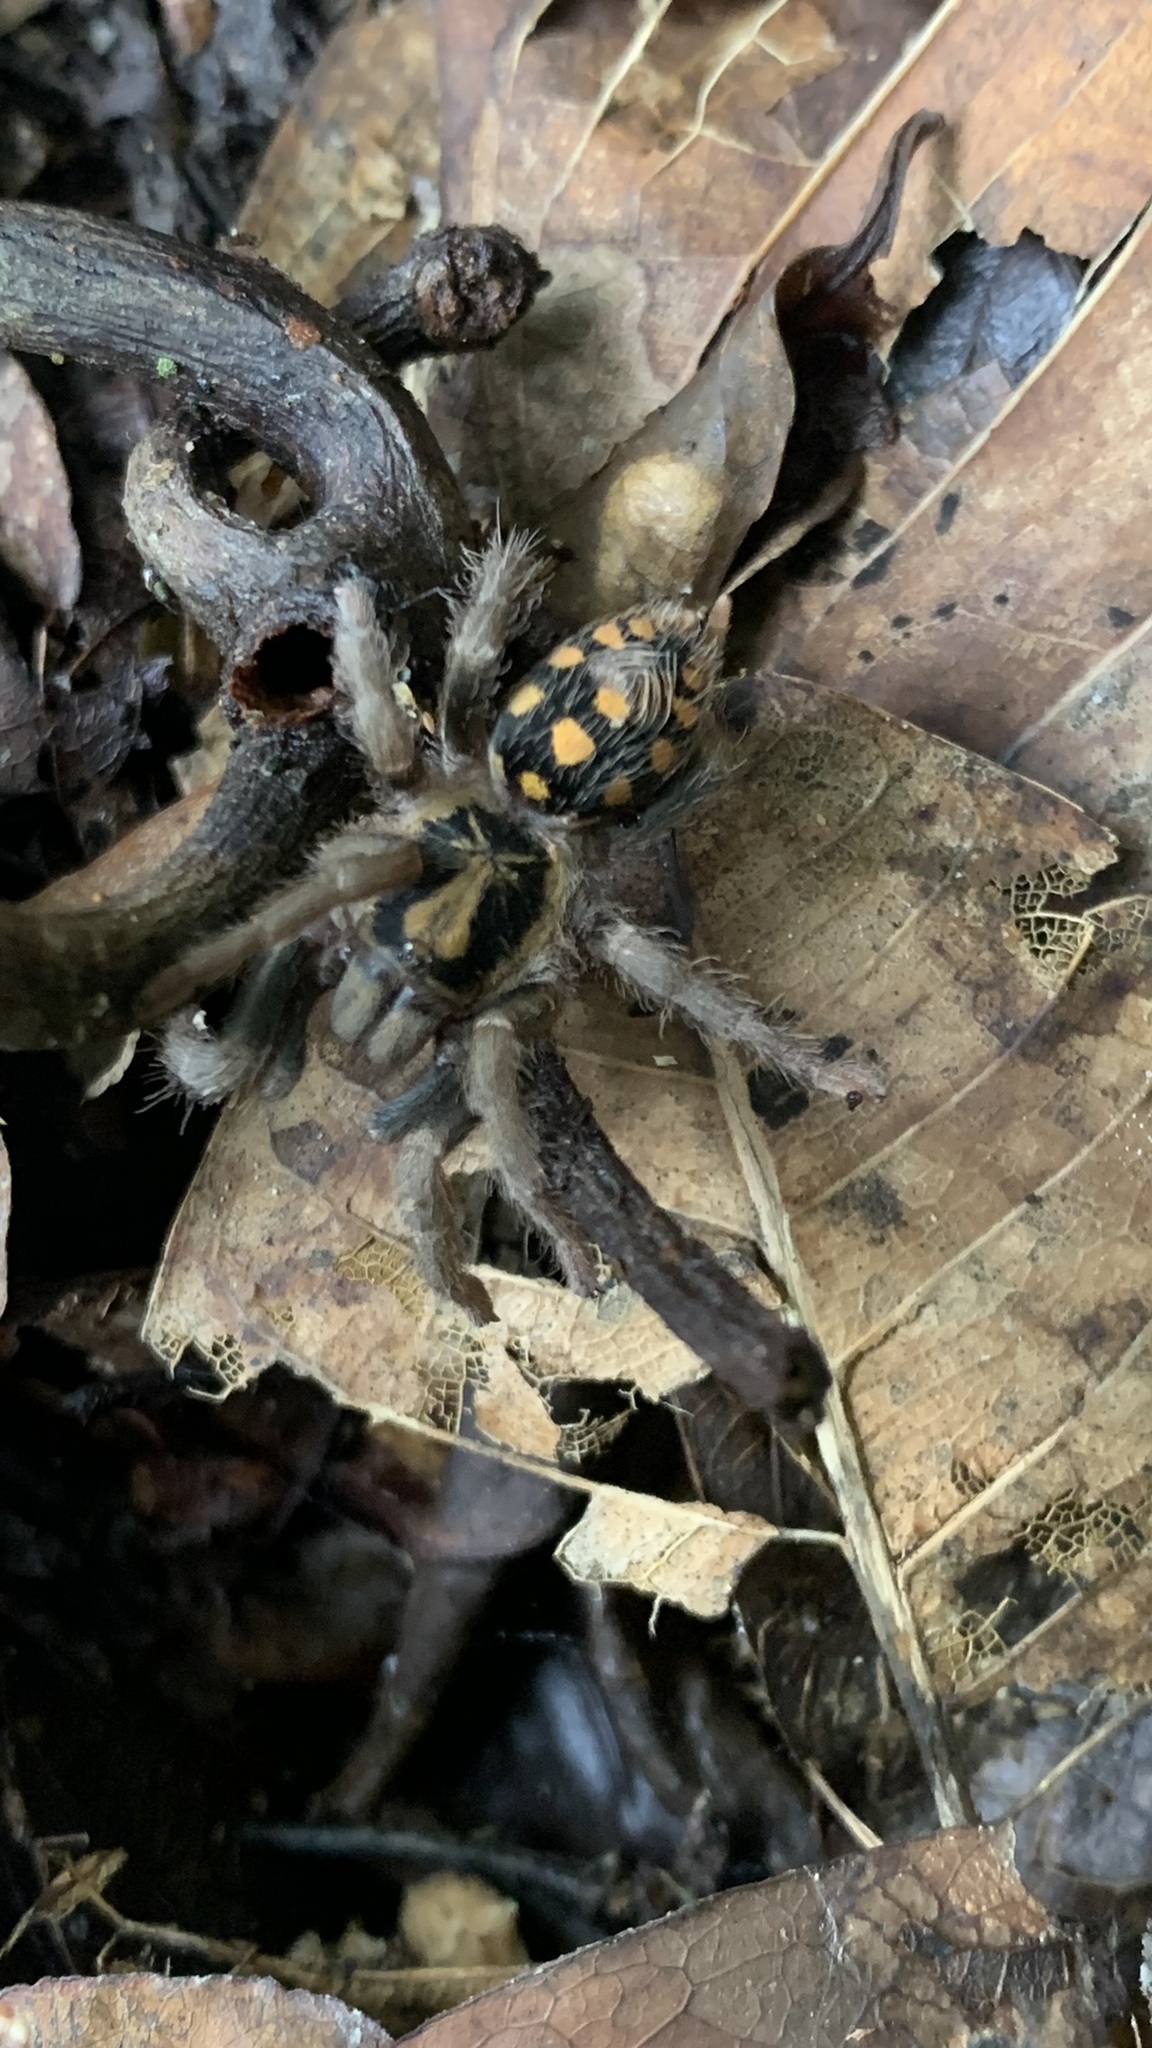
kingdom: Animalia
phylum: Arthropoda
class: Arachnida
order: Araneae
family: Theraphosidae
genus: Hapalopus
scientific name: Hapalopus formosus
